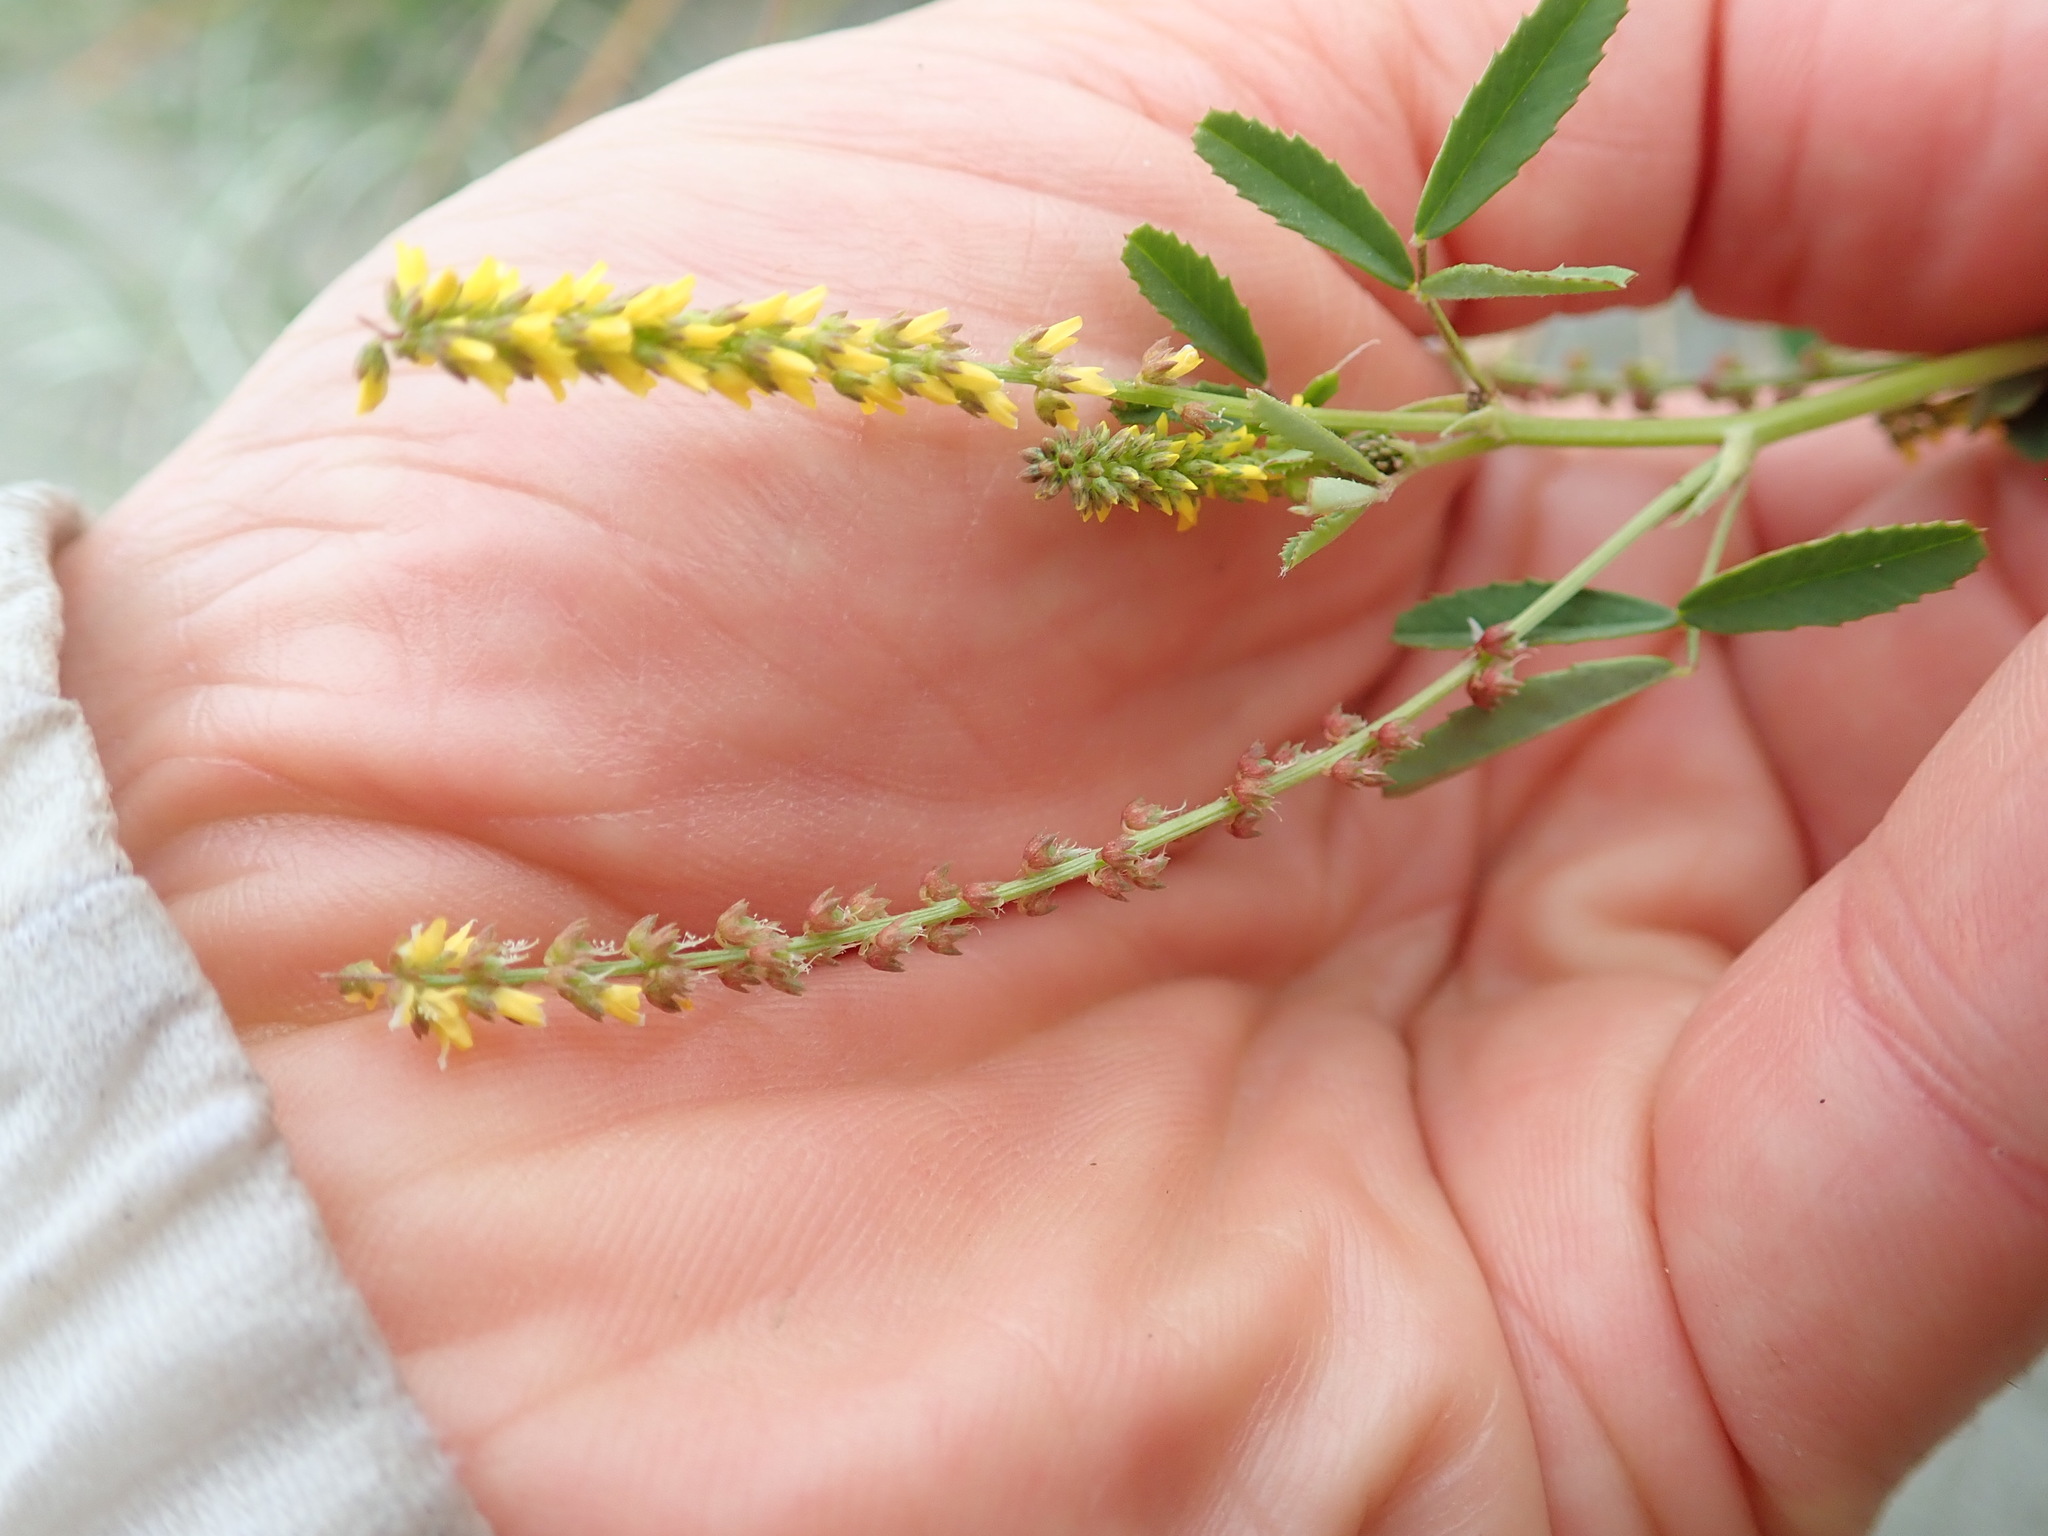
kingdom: Plantae
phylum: Tracheophyta
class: Magnoliopsida
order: Fabales
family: Fabaceae
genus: Melilotus
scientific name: Melilotus indicus
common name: Small melilot
